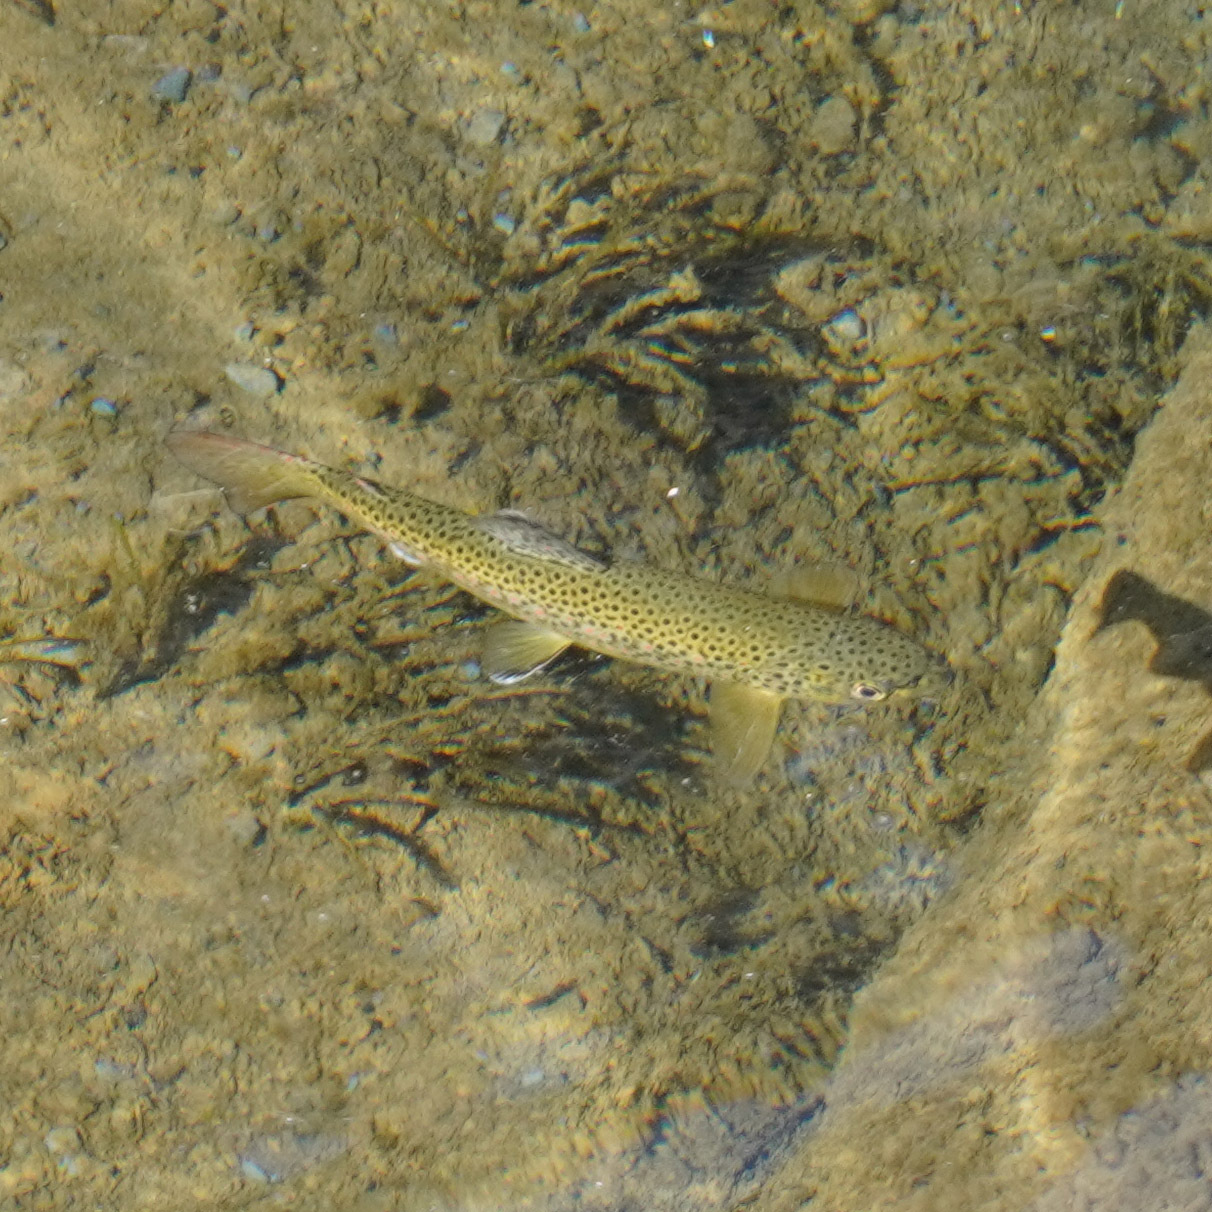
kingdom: Animalia
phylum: Chordata
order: Salmoniformes
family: Salmonidae
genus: Salmo
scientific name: Salmo trutta
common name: Brown trout
